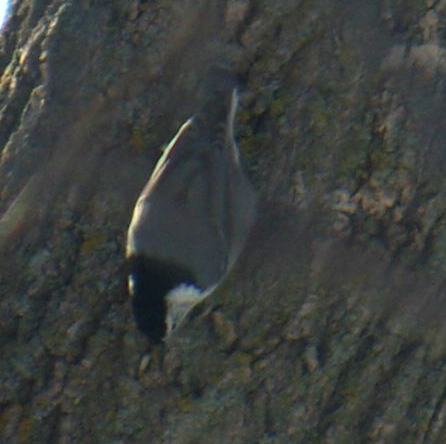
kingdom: Animalia
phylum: Chordata
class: Aves
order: Passeriformes
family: Sittidae
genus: Sitta
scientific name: Sitta carolinensis
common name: White-breasted nuthatch
